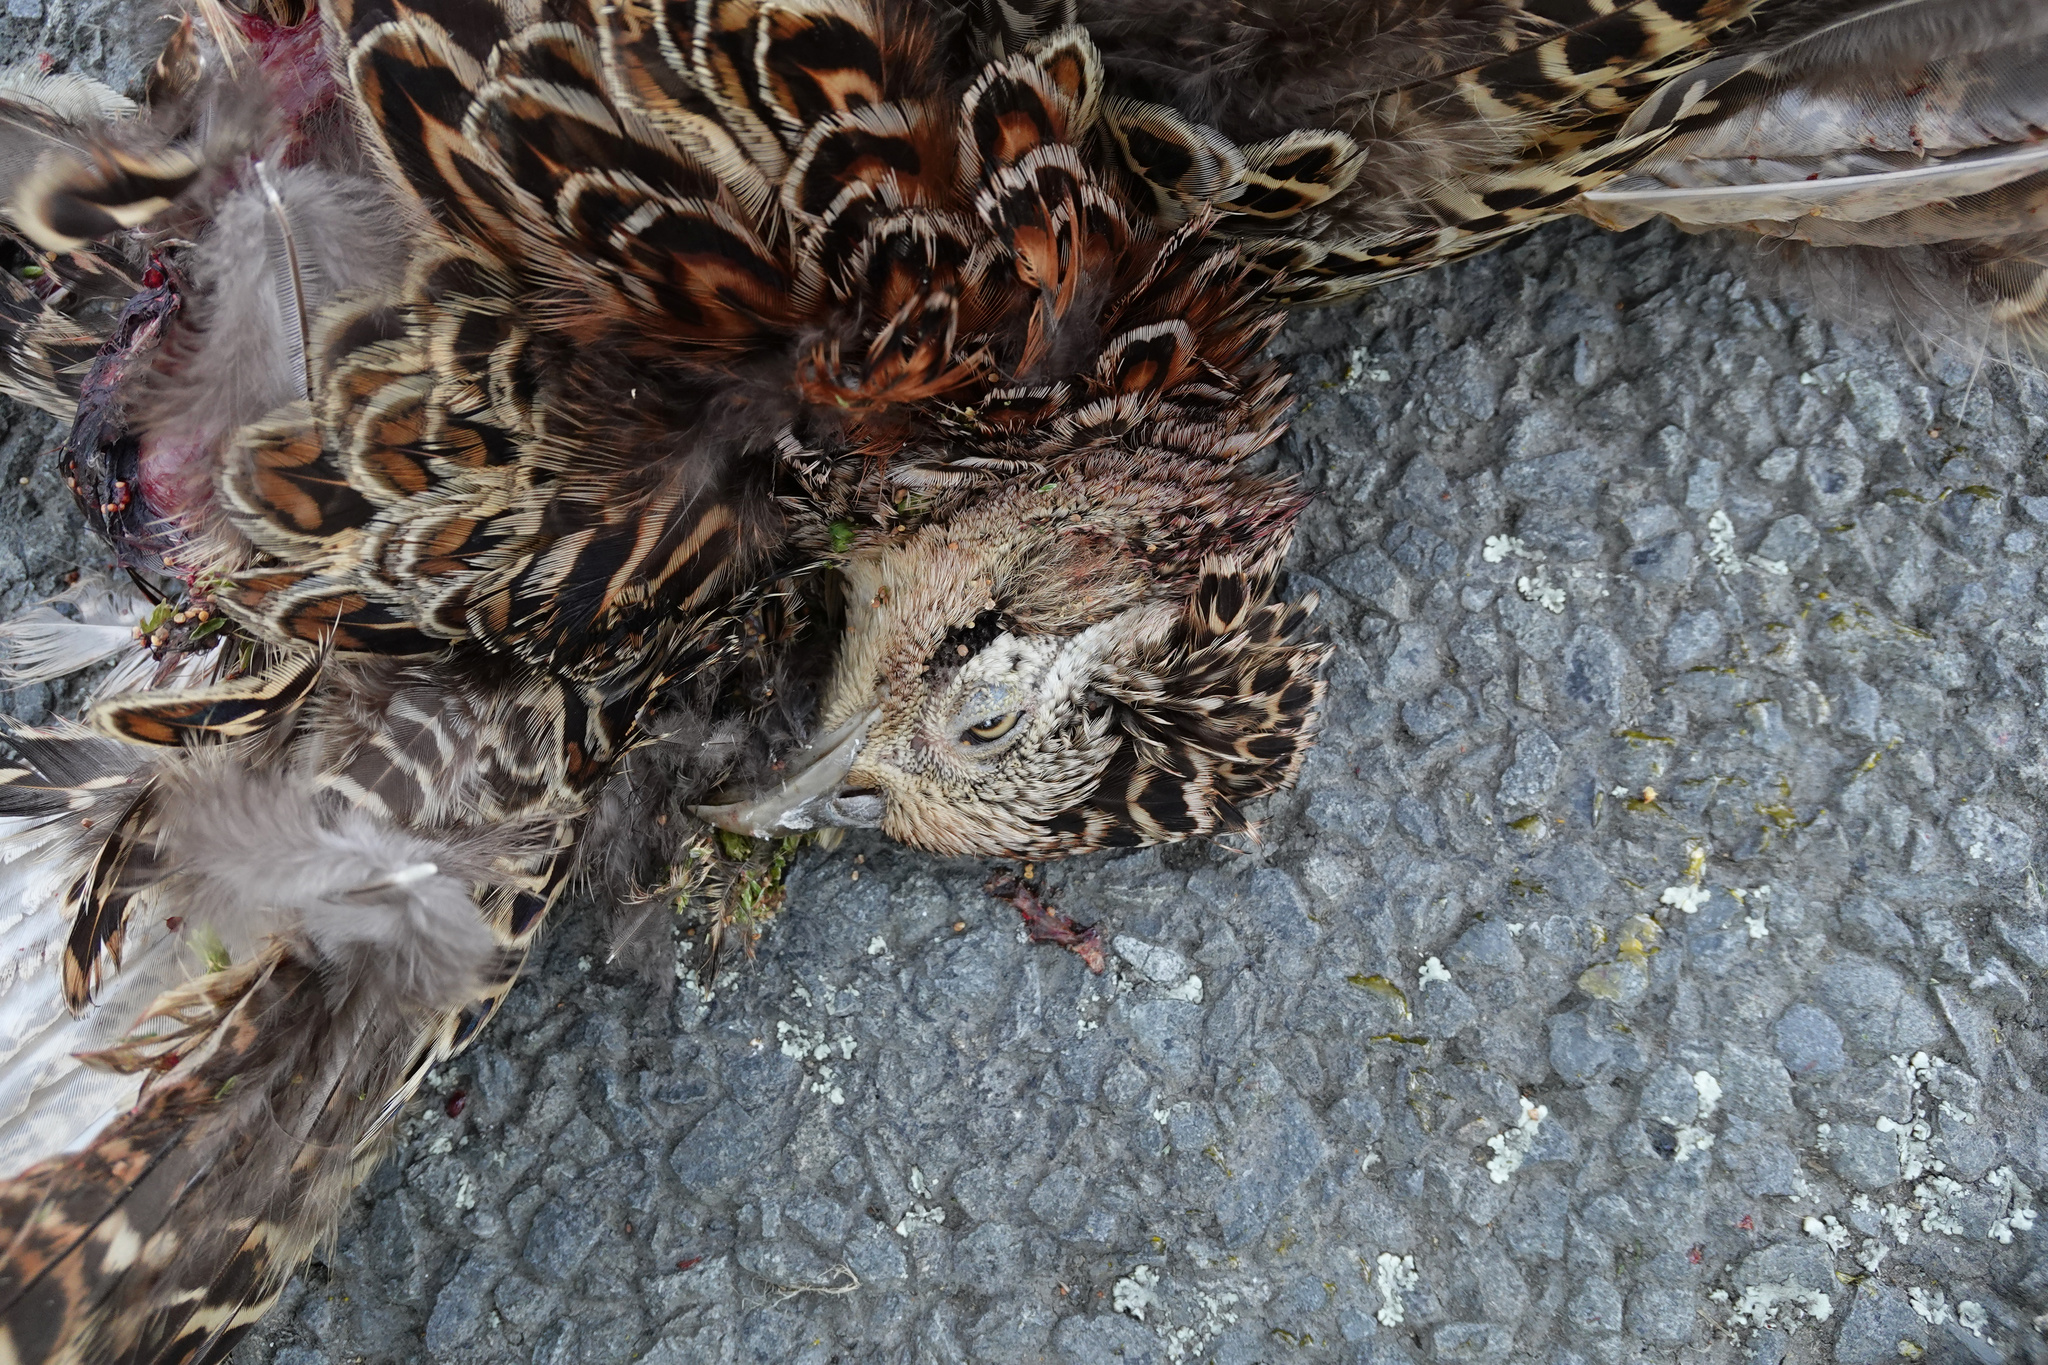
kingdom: Animalia
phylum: Chordata
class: Aves
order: Galliformes
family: Phasianidae
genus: Phasianus
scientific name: Phasianus colchicus
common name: Common pheasant
